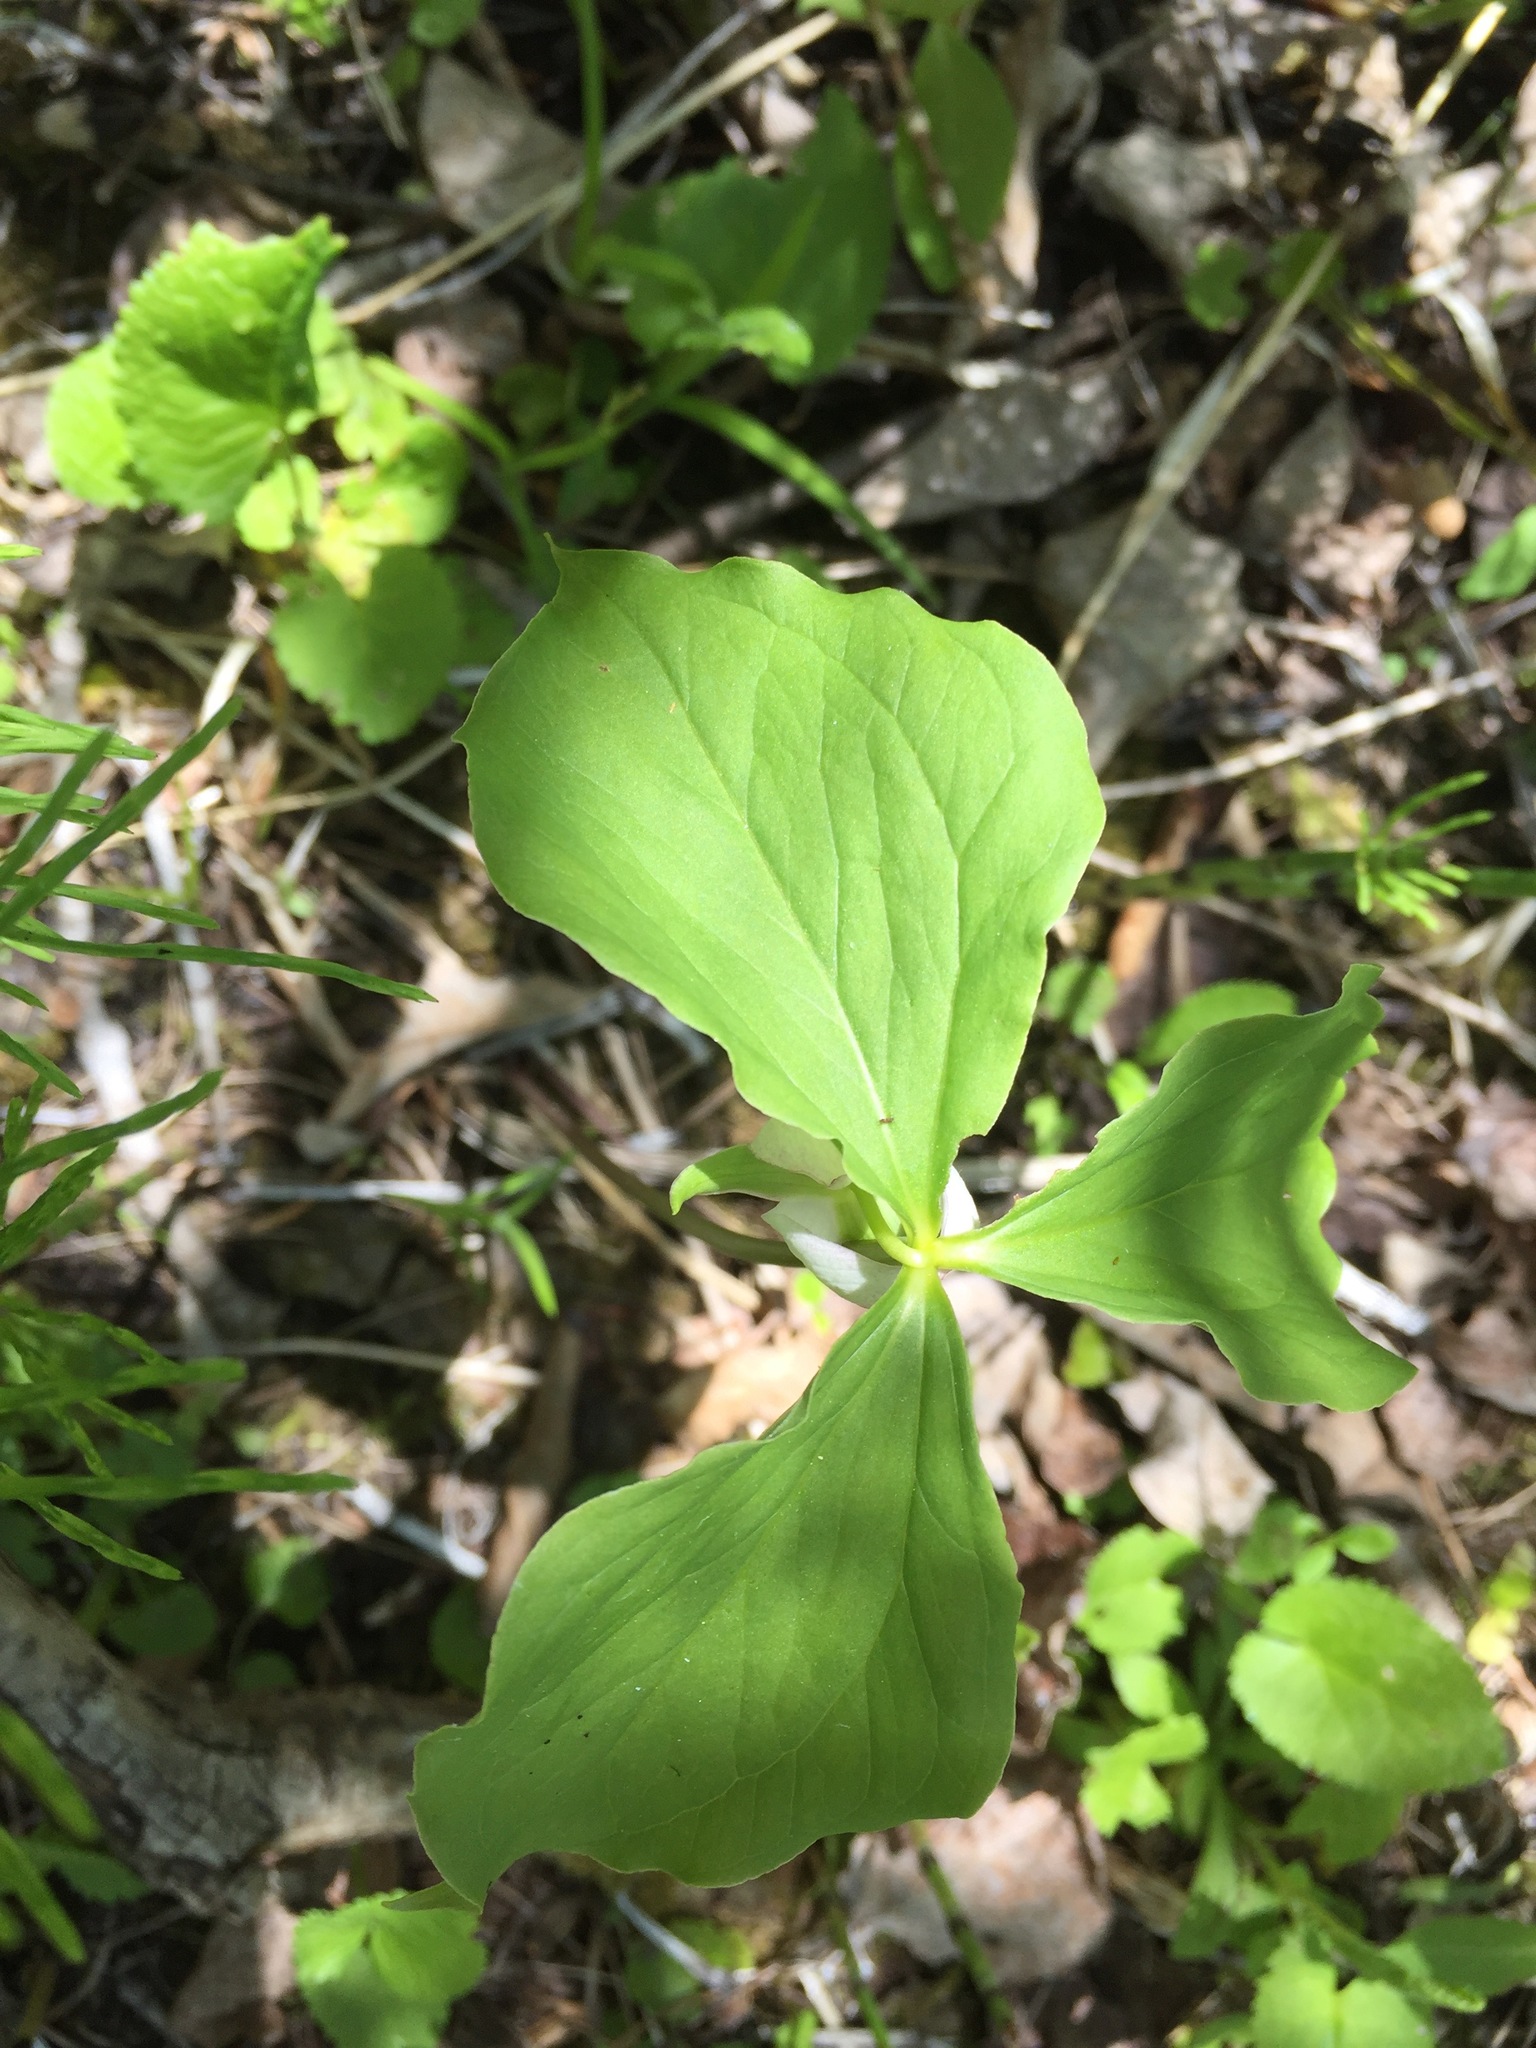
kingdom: Plantae
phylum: Tracheophyta
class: Liliopsida
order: Liliales
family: Melanthiaceae
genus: Trillium
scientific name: Trillium cernuum
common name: Nodding trillium
